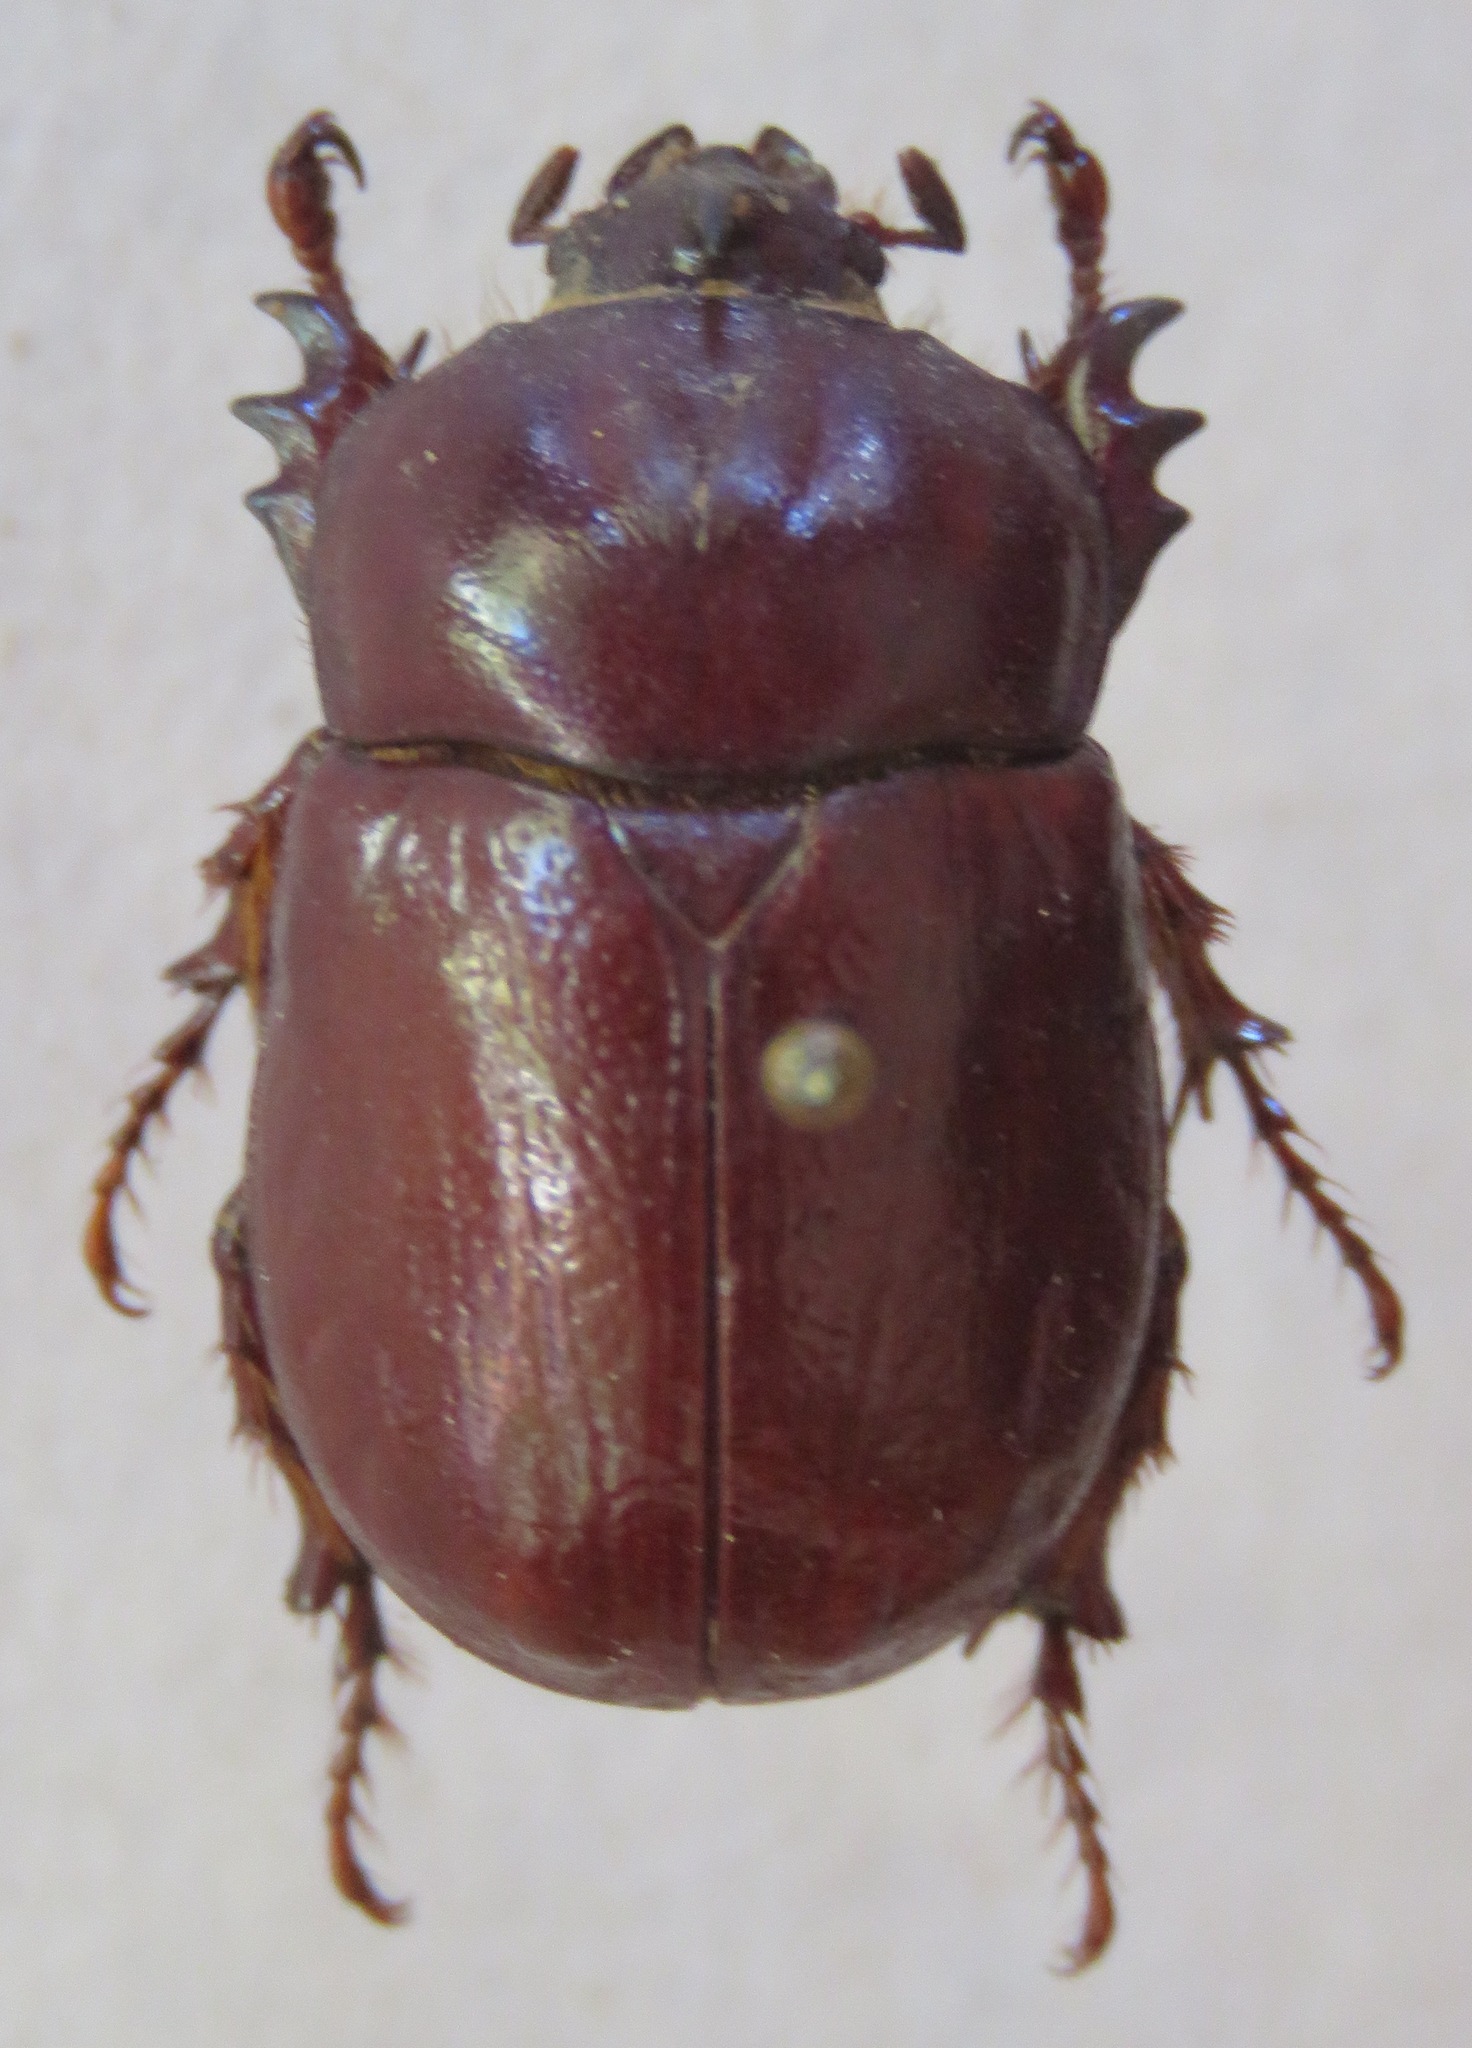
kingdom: Animalia
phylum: Arthropoda
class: Insecta
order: Coleoptera
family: Scarabaeidae
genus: Phyllognathus
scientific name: Phyllognathus excavatus
